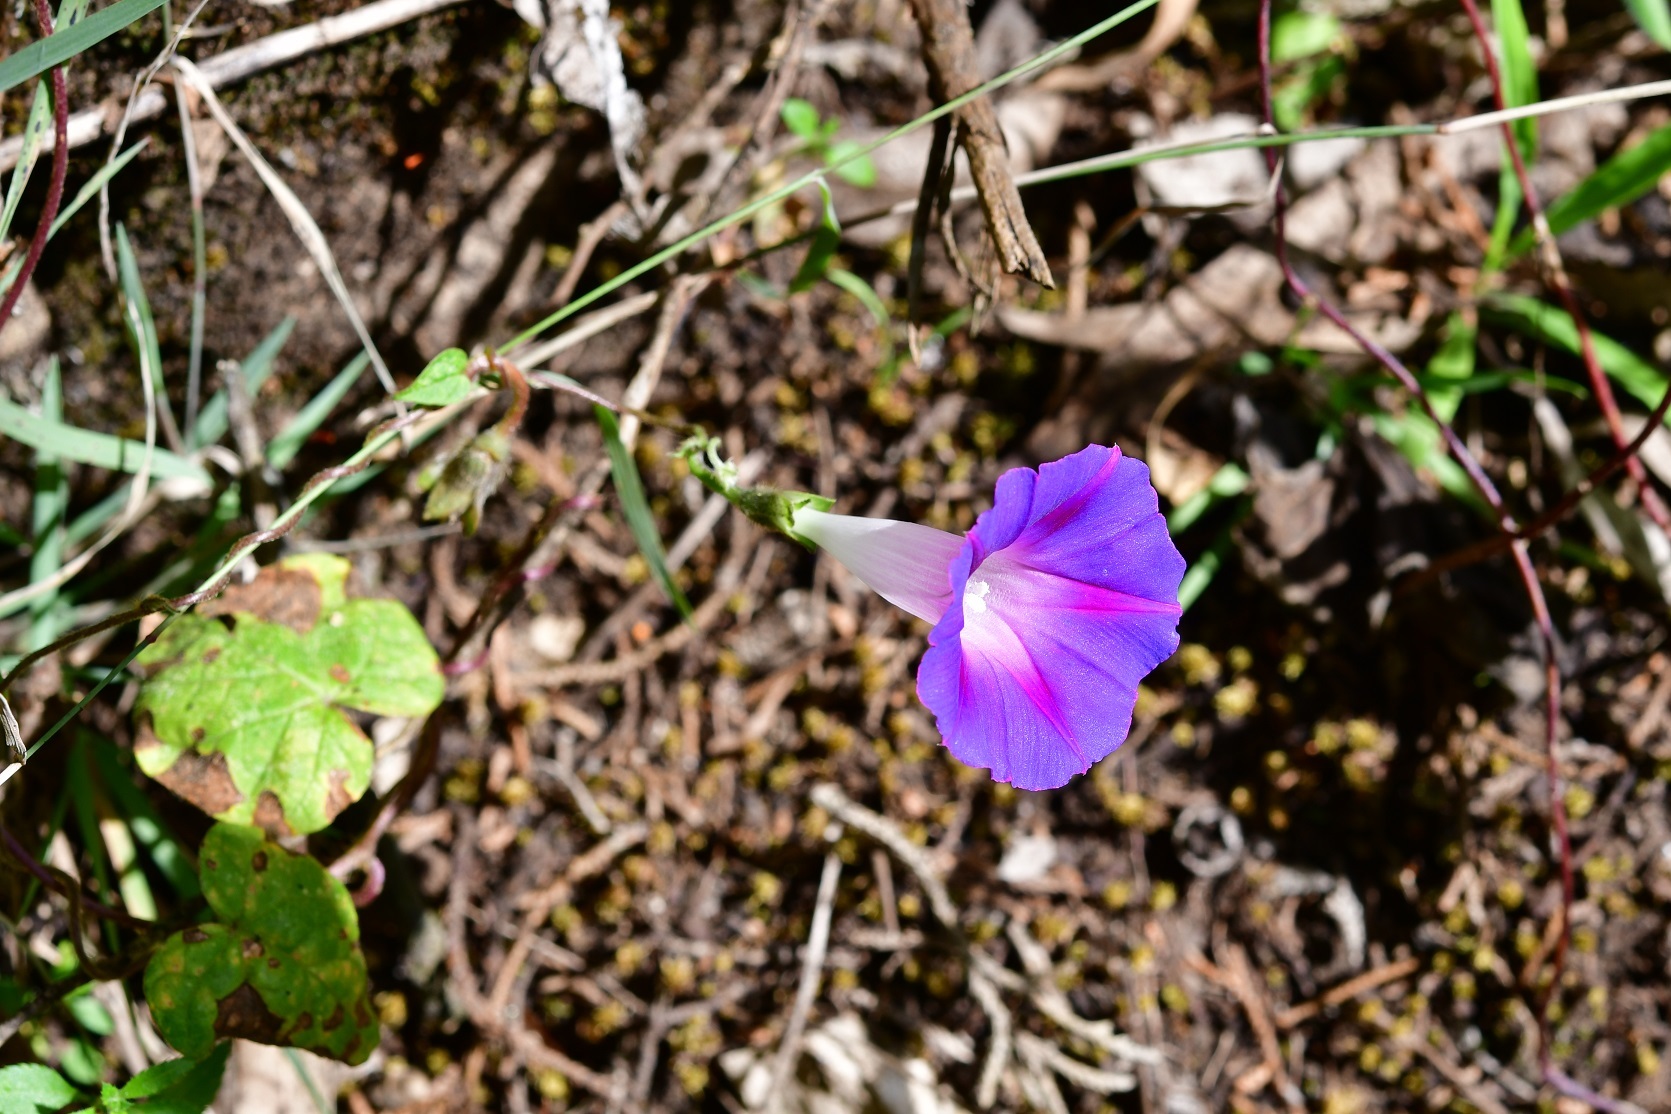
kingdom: Plantae
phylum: Tracheophyta
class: Magnoliopsida
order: Solanales
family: Convolvulaceae
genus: Ipomoea
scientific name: Ipomoea purpurea
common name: Common morning-glory
